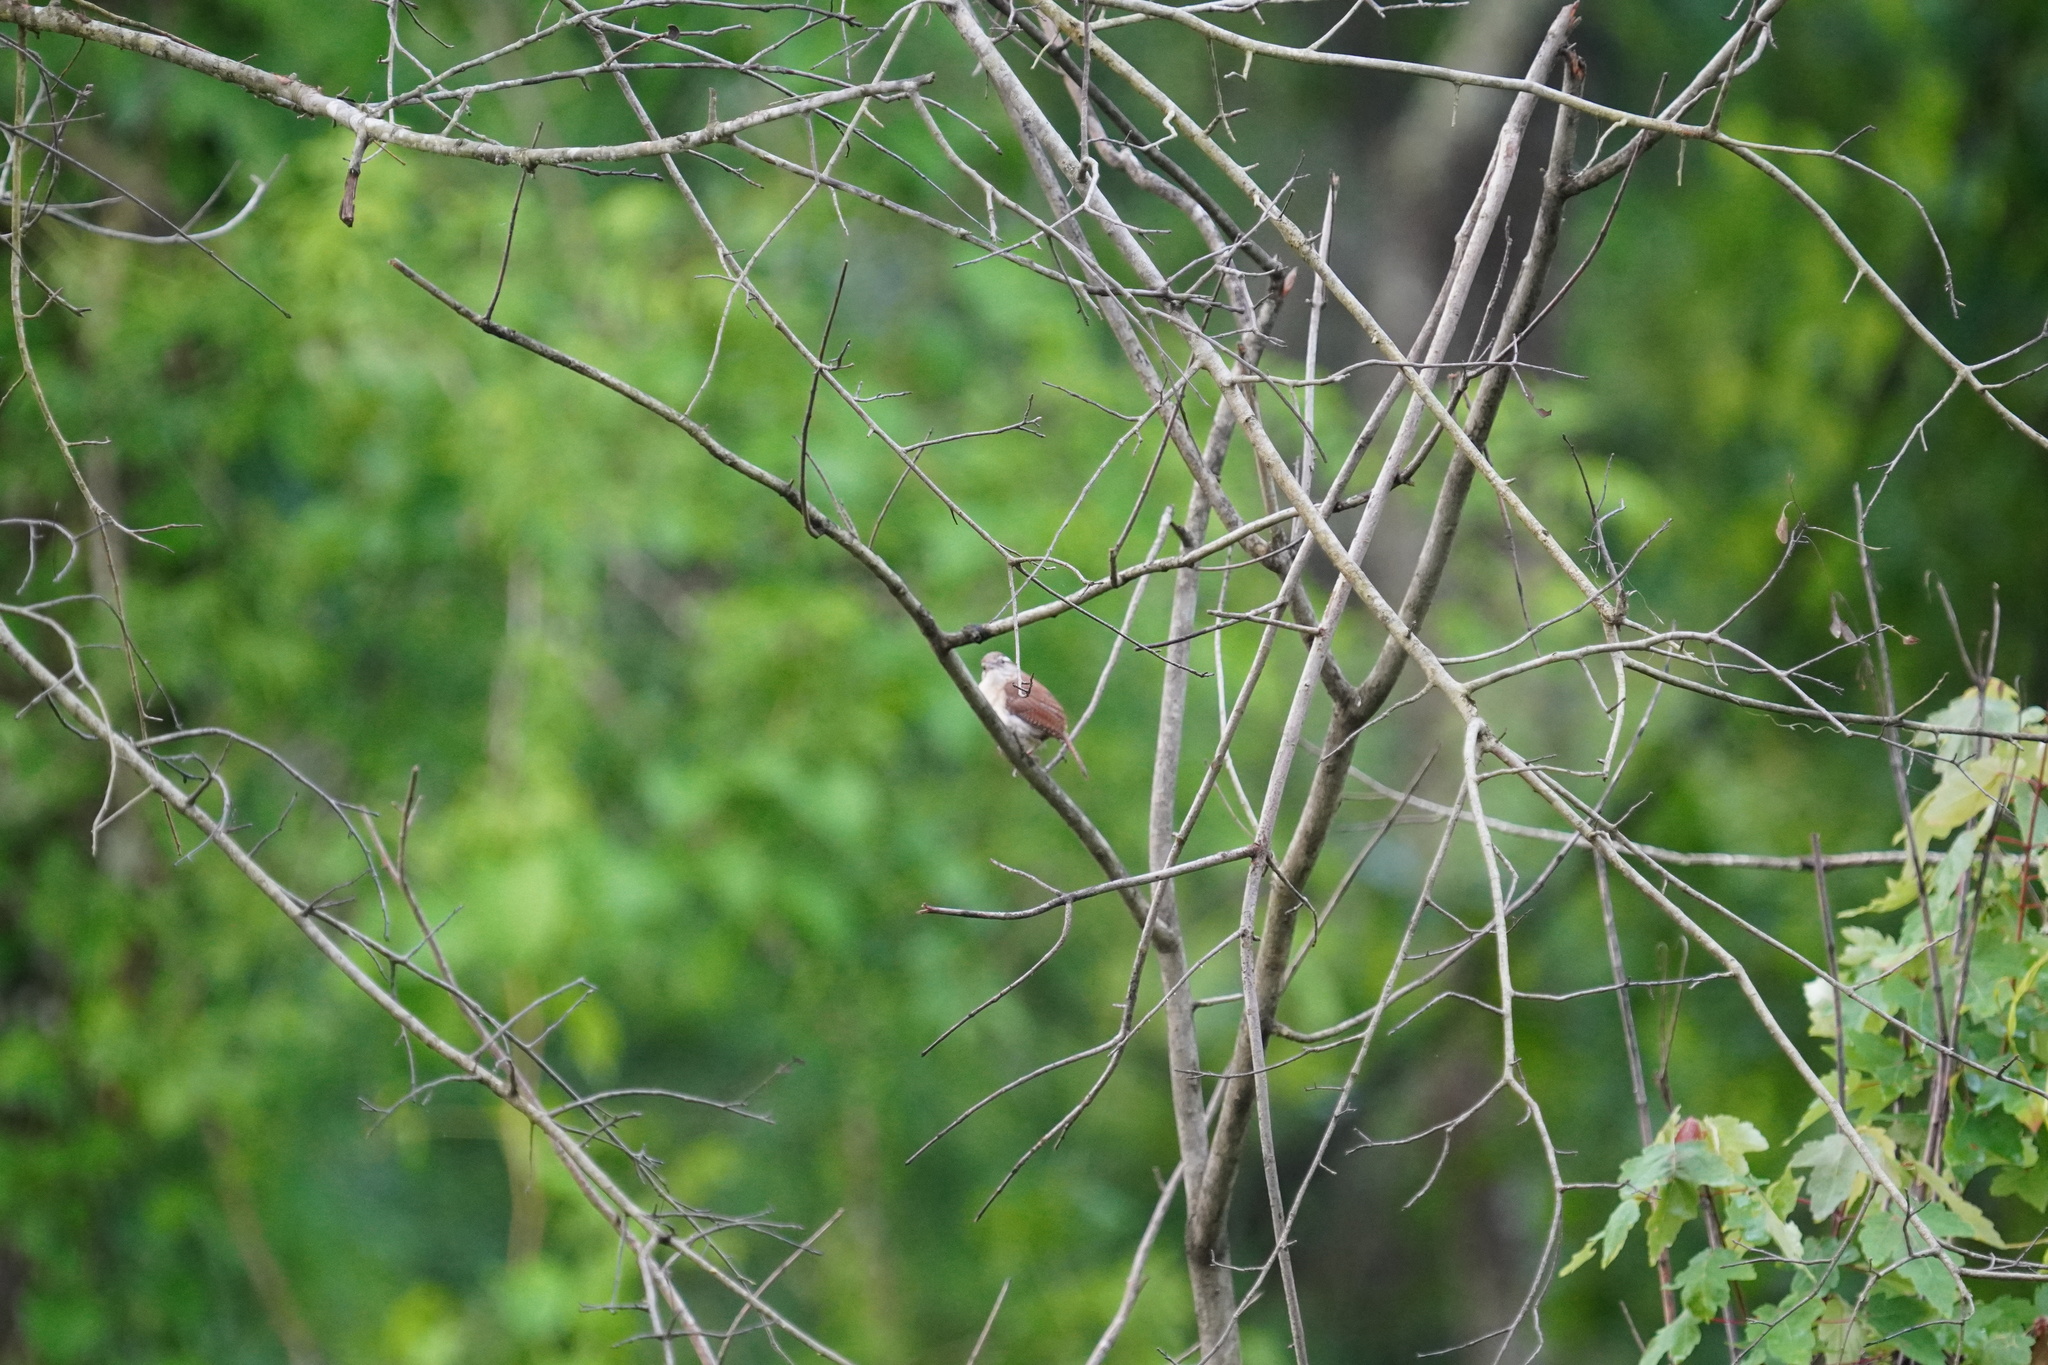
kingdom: Animalia
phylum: Chordata
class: Aves
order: Passeriformes
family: Troglodytidae
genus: Thryothorus
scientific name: Thryothorus ludovicianus
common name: Carolina wren
